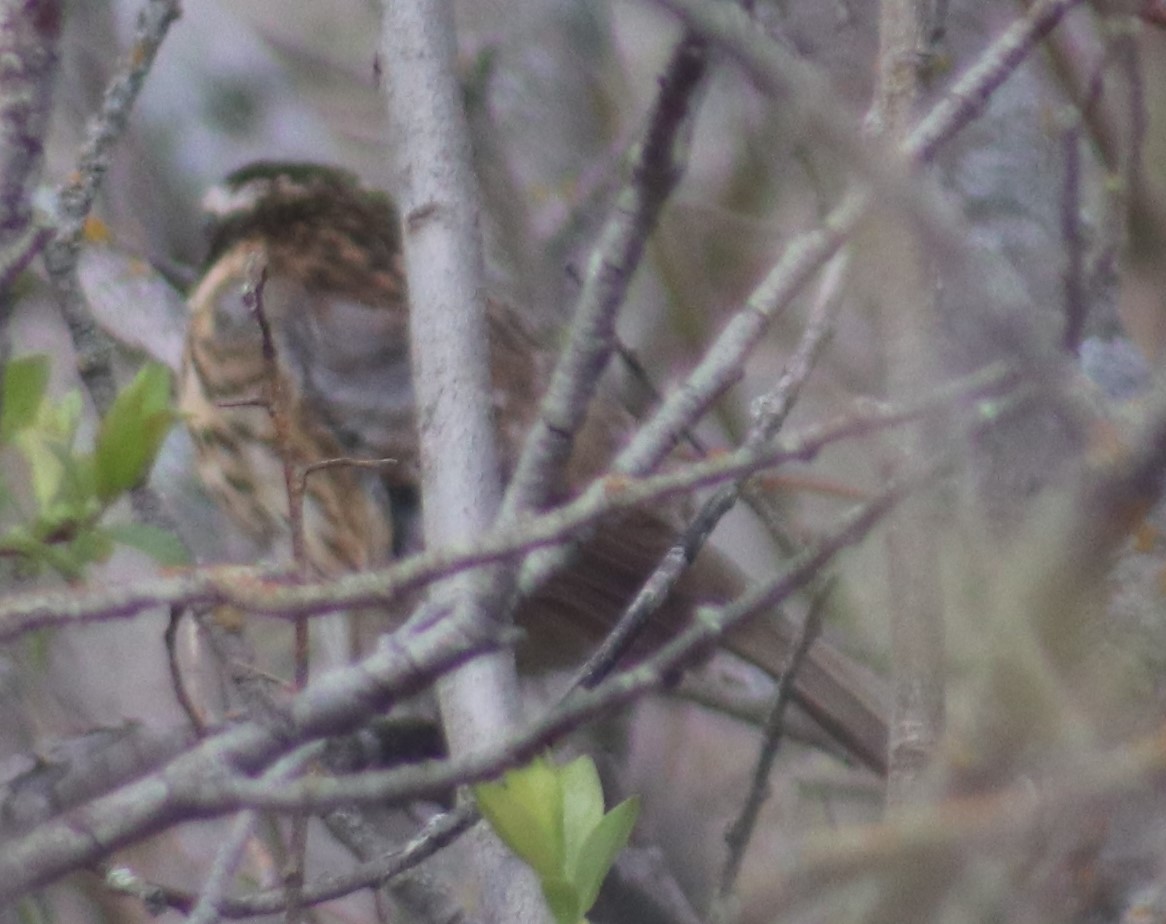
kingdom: Animalia
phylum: Chordata
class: Aves
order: Passeriformes
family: Cardinalidae
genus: Pheucticus
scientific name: Pheucticus ludovicianus
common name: Rose-breasted grosbeak
